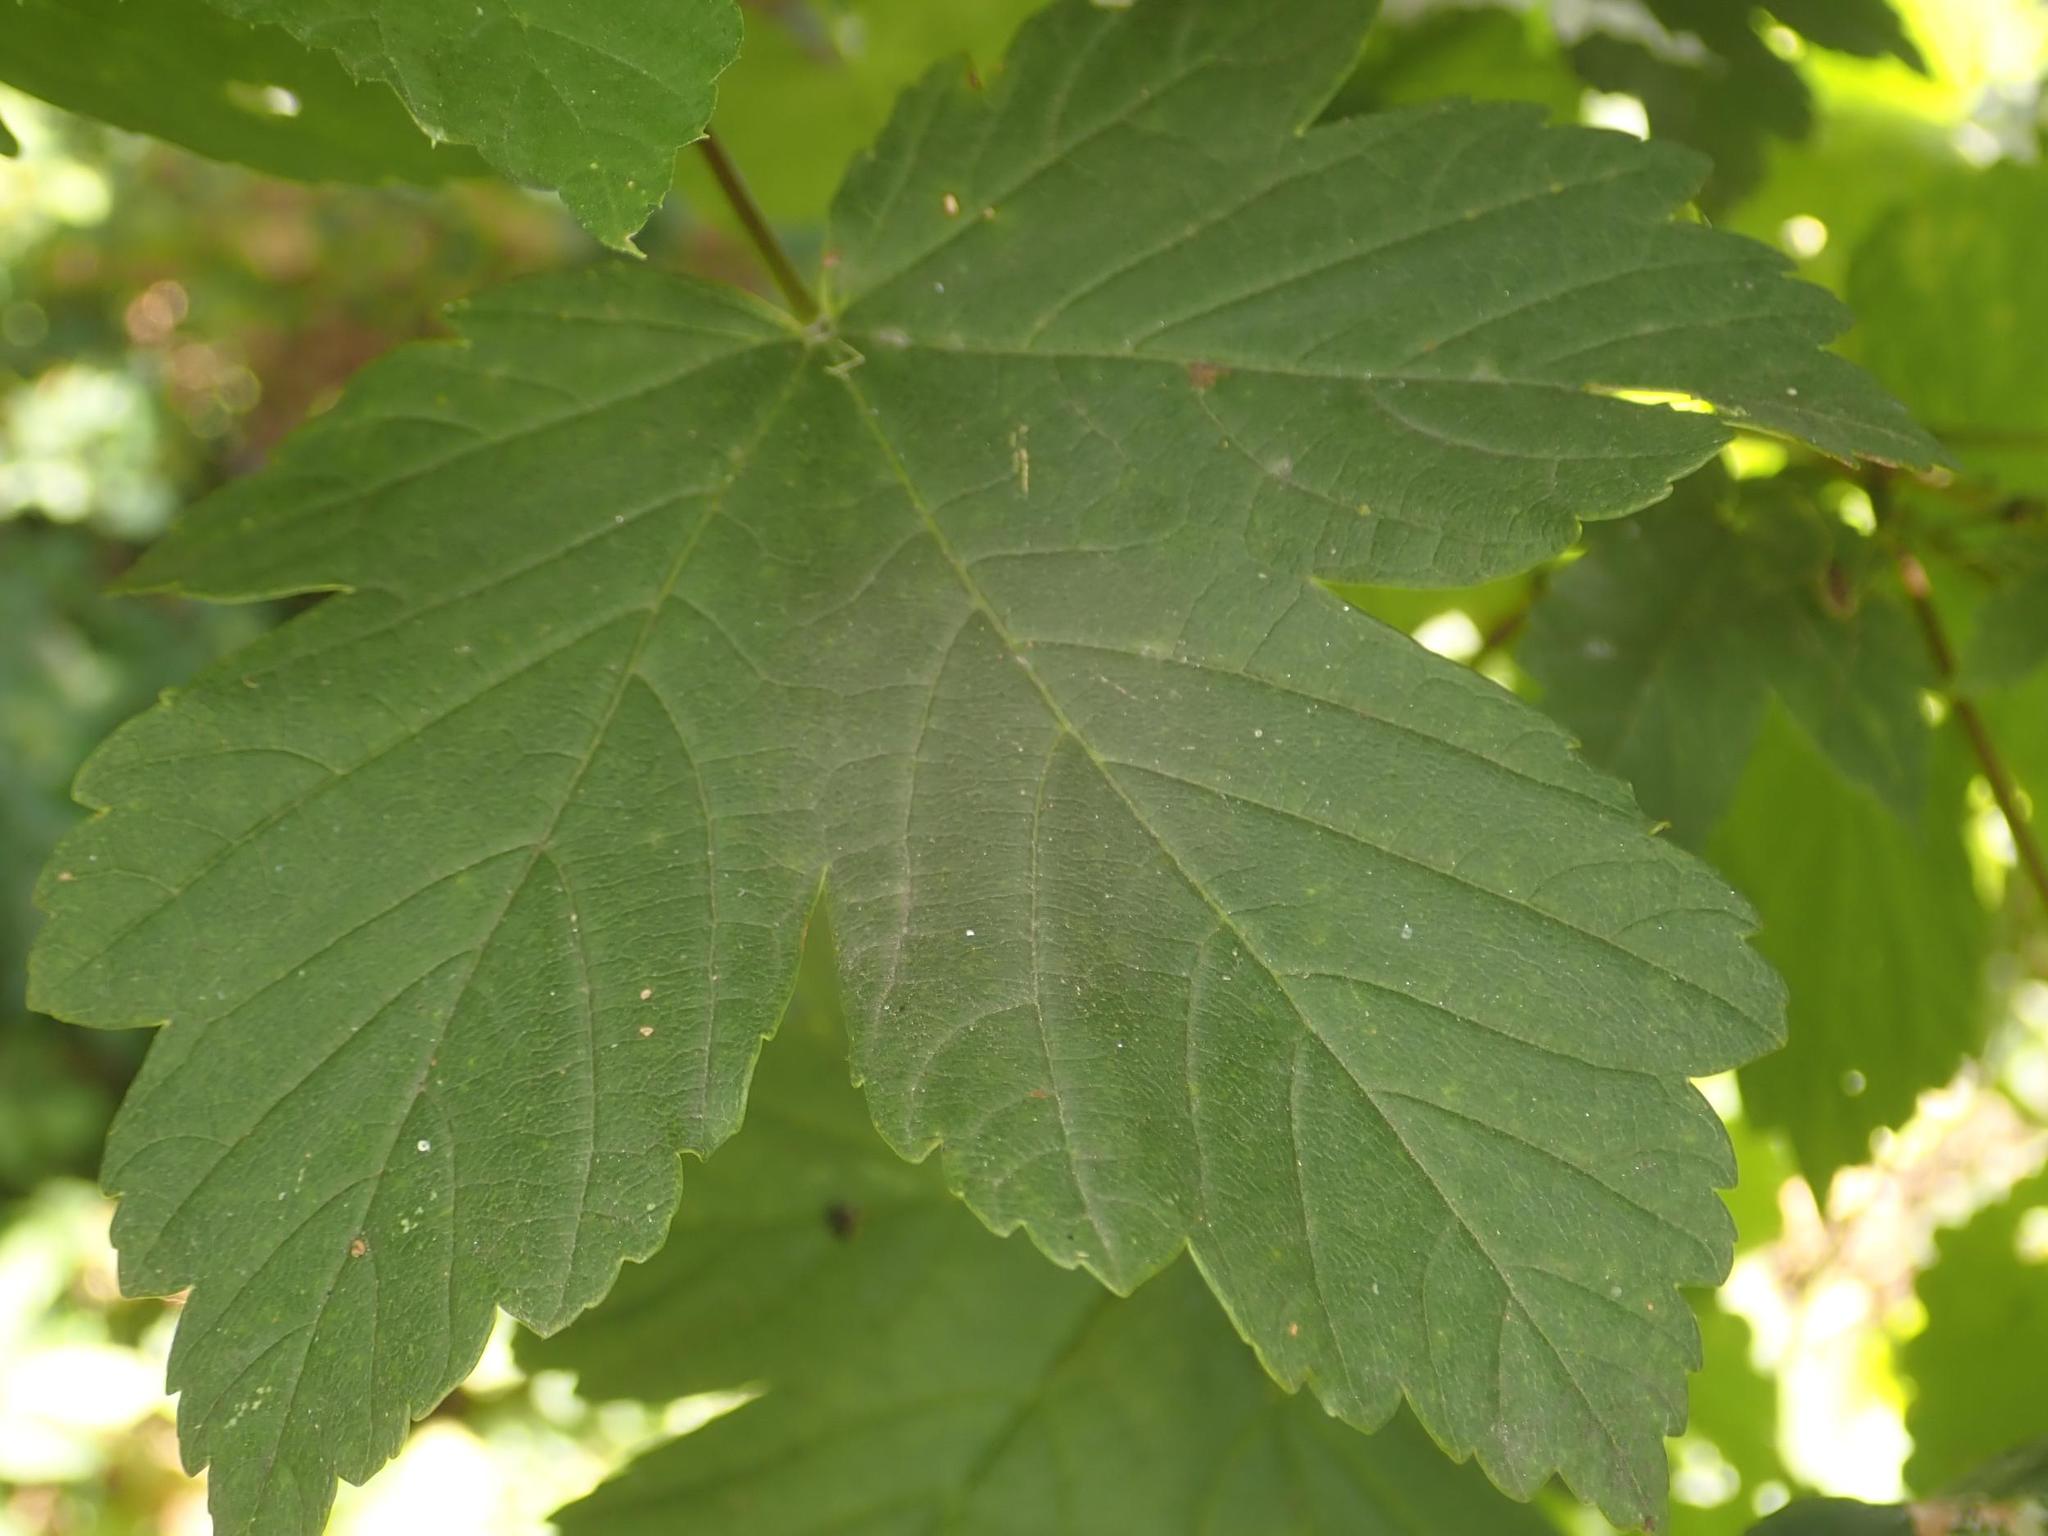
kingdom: Plantae
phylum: Tracheophyta
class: Magnoliopsida
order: Sapindales
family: Sapindaceae
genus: Acer
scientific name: Acer pseudoplatanus
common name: Sycamore
